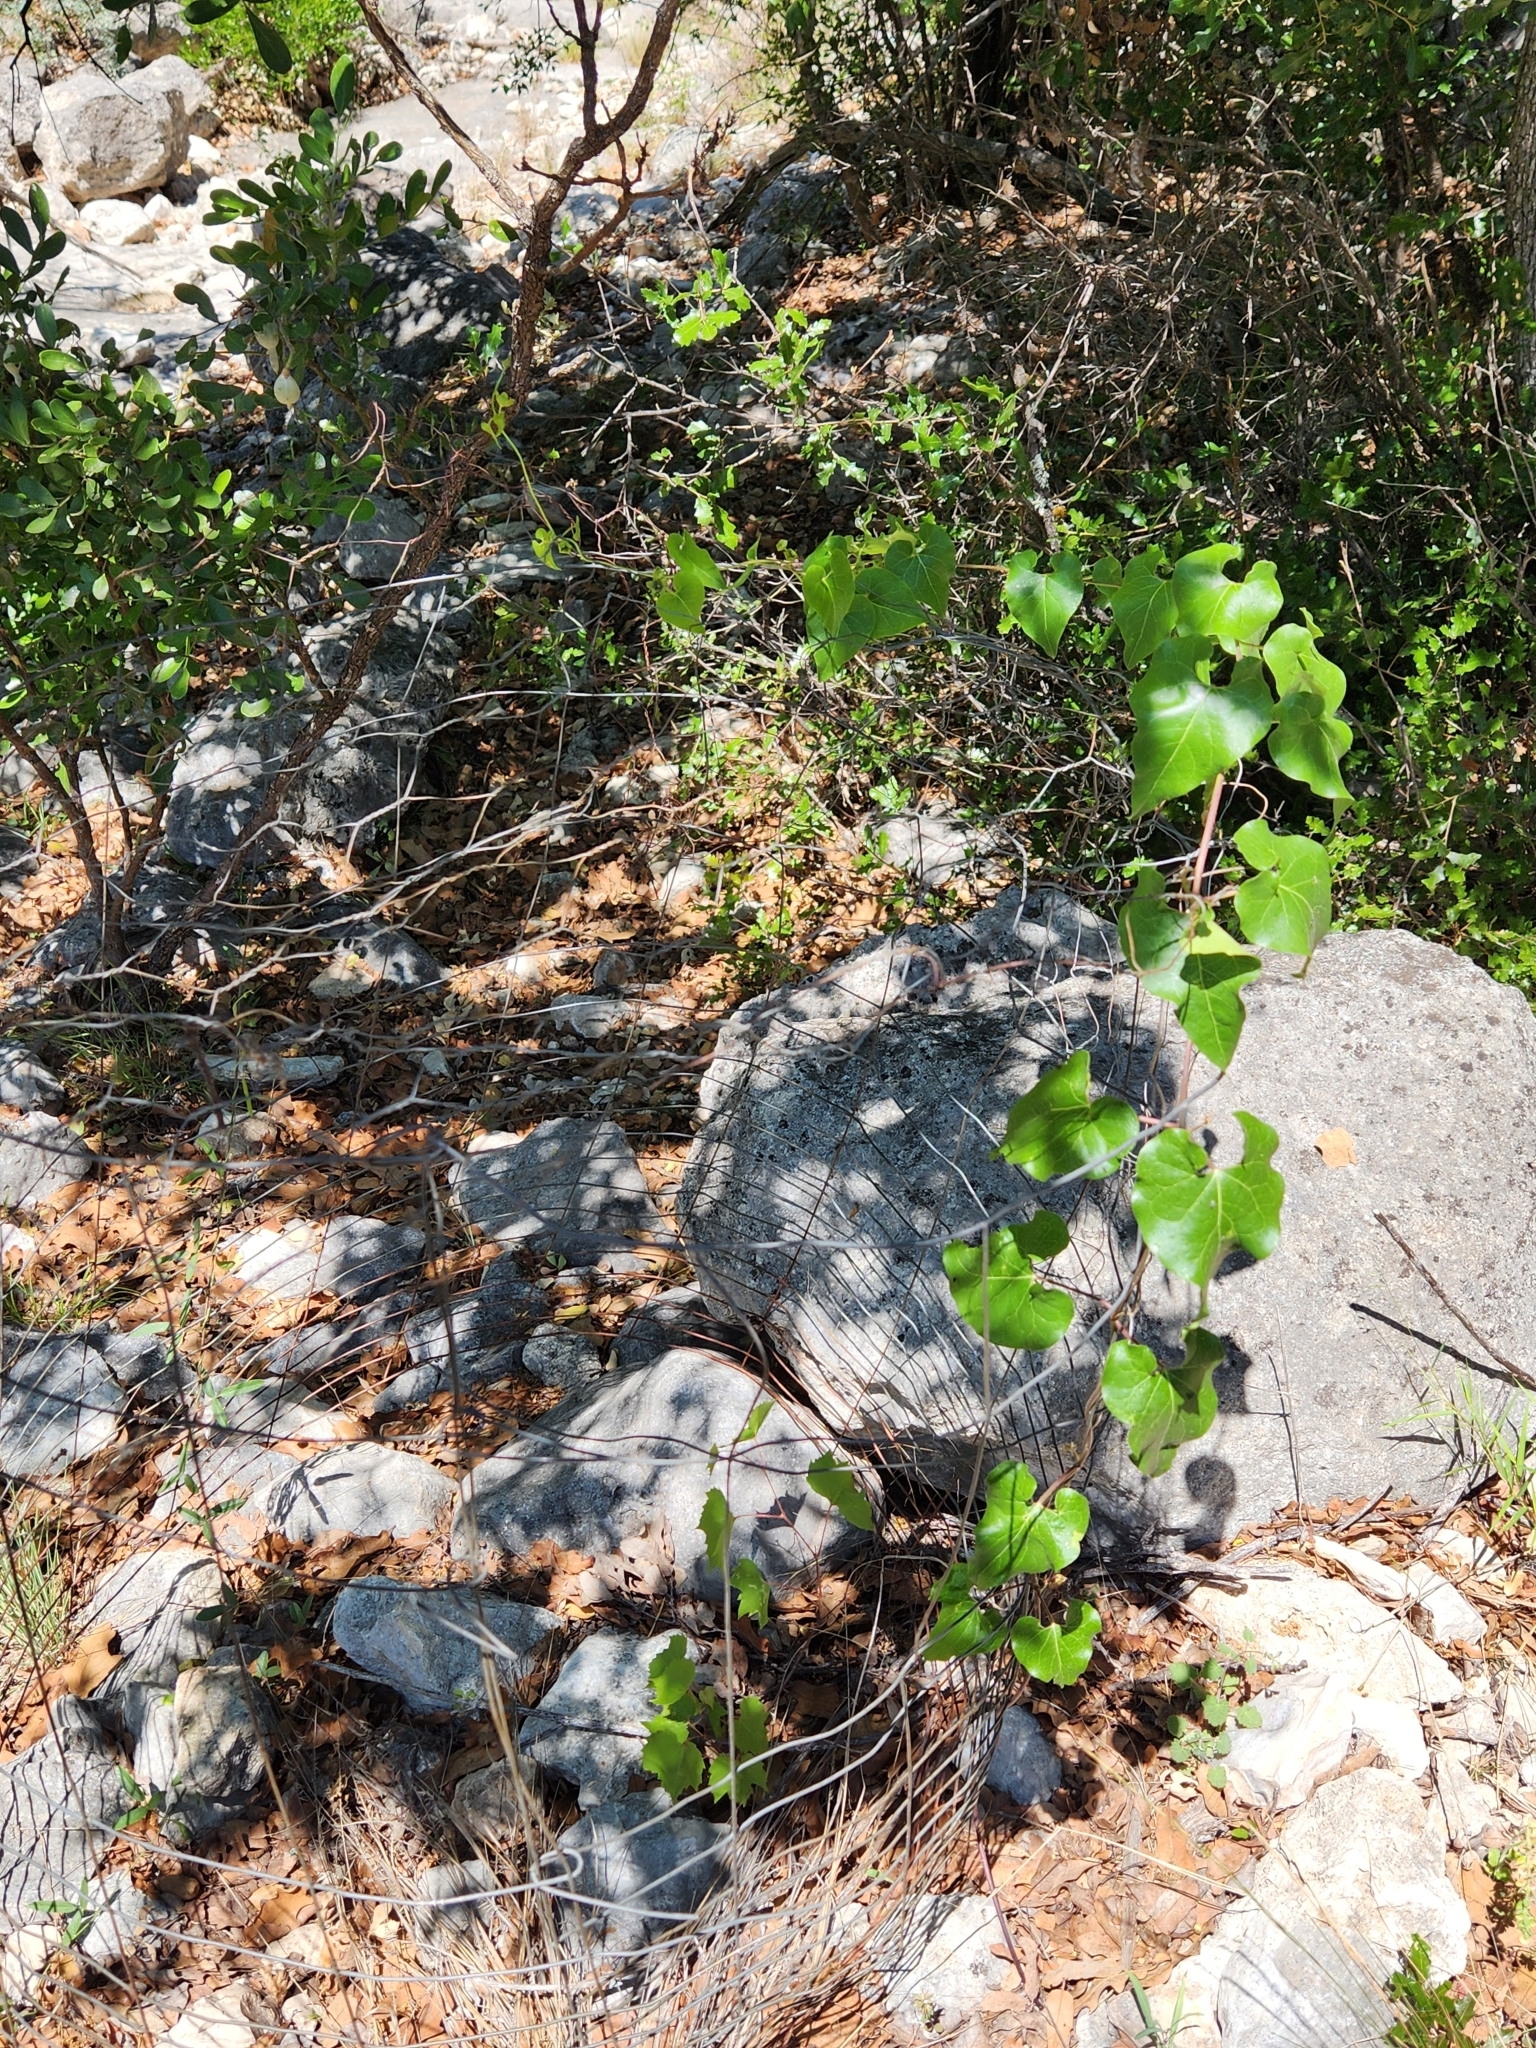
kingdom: Plantae
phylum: Tracheophyta
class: Magnoliopsida
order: Gentianales
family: Apocynaceae
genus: Matelea
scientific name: Matelea edwardsensis
